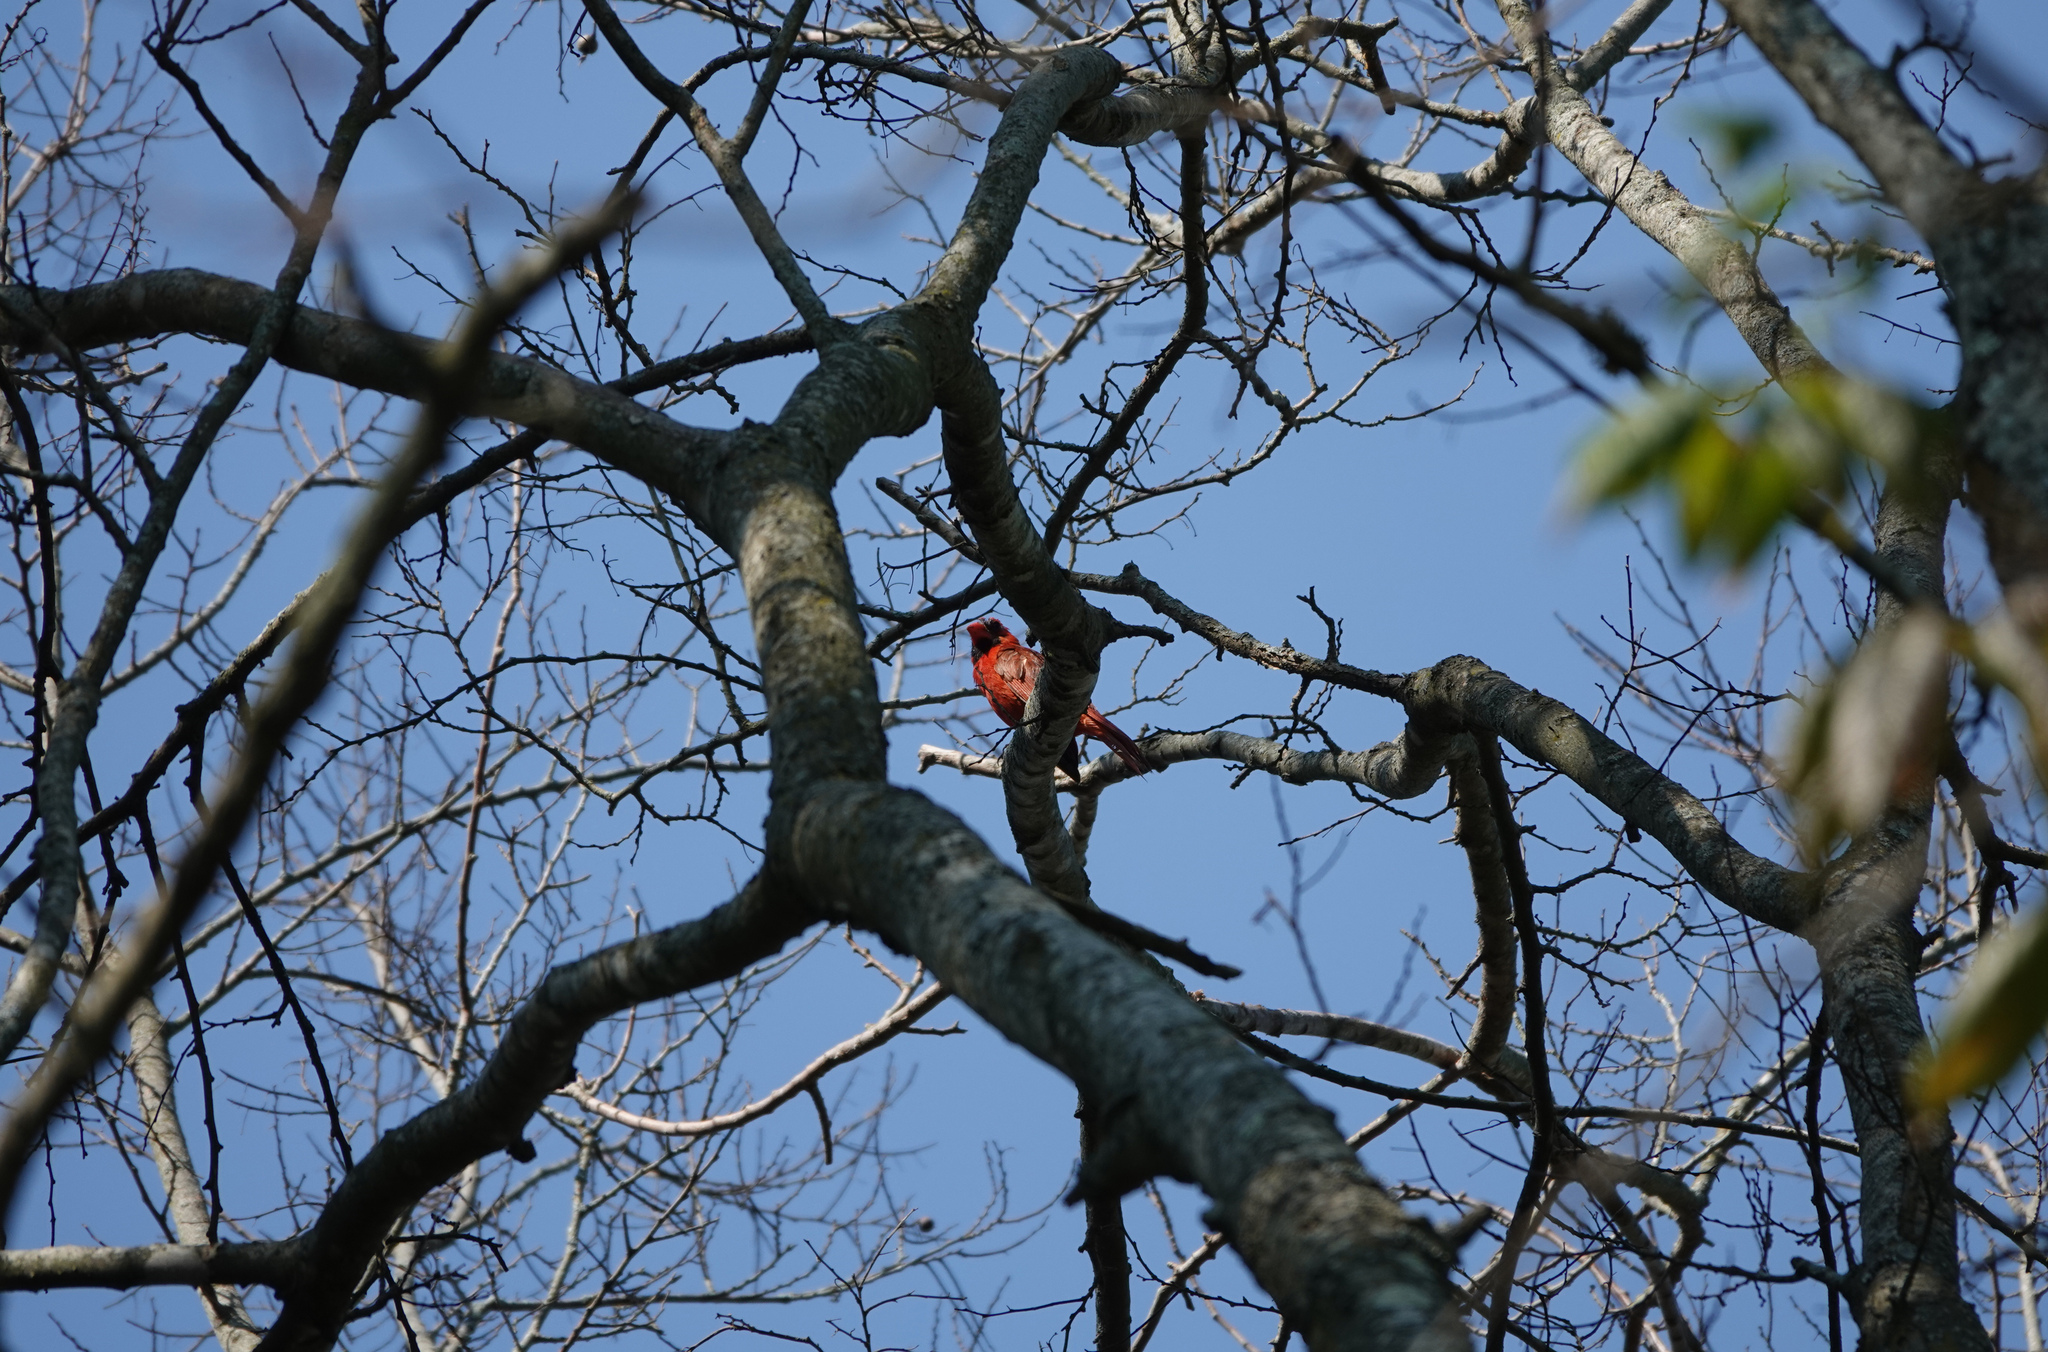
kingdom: Animalia
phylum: Chordata
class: Aves
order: Passeriformes
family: Cardinalidae
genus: Cardinalis
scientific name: Cardinalis cardinalis
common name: Northern cardinal
